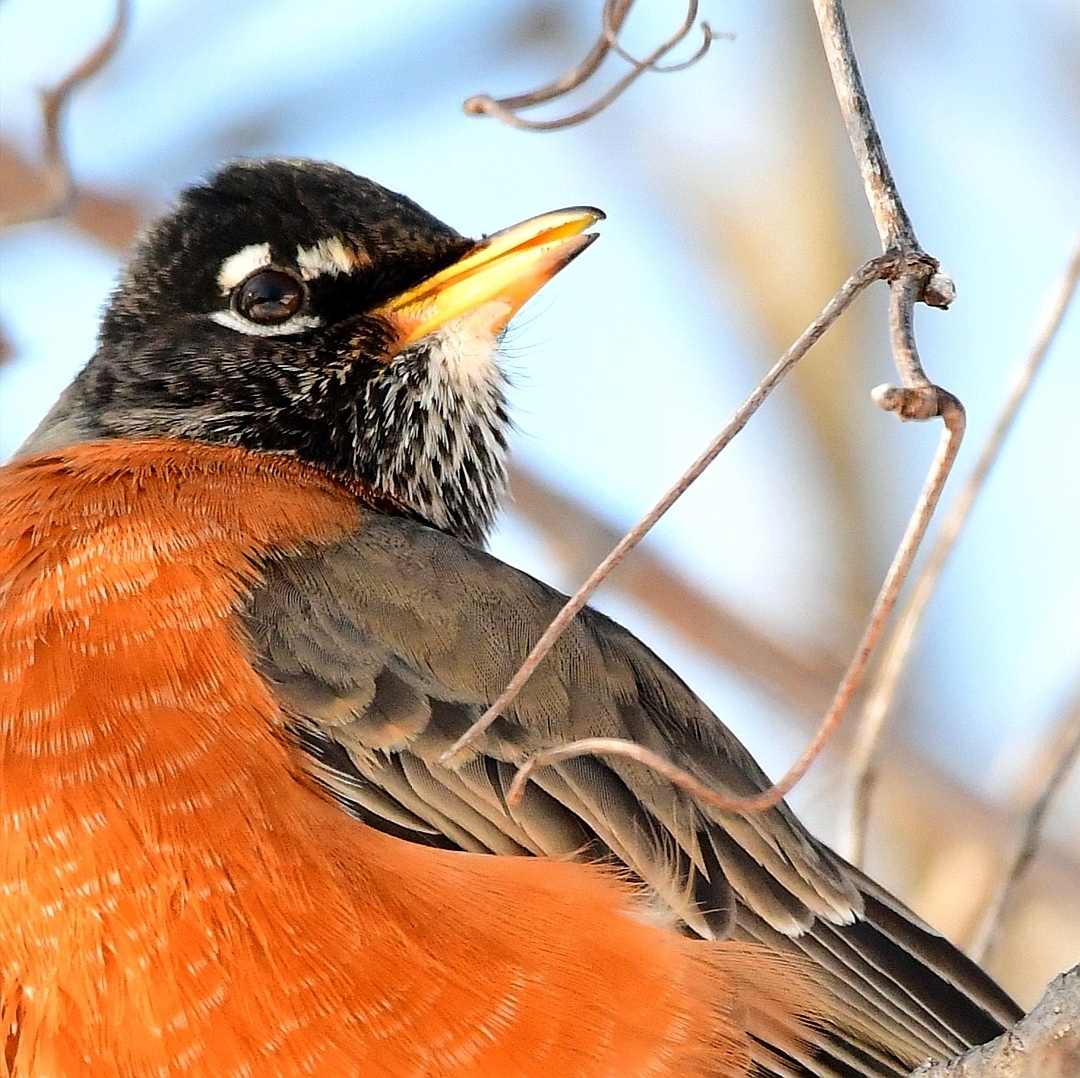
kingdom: Animalia
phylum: Chordata
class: Aves
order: Passeriformes
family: Turdidae
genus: Turdus
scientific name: Turdus migratorius
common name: American robin
